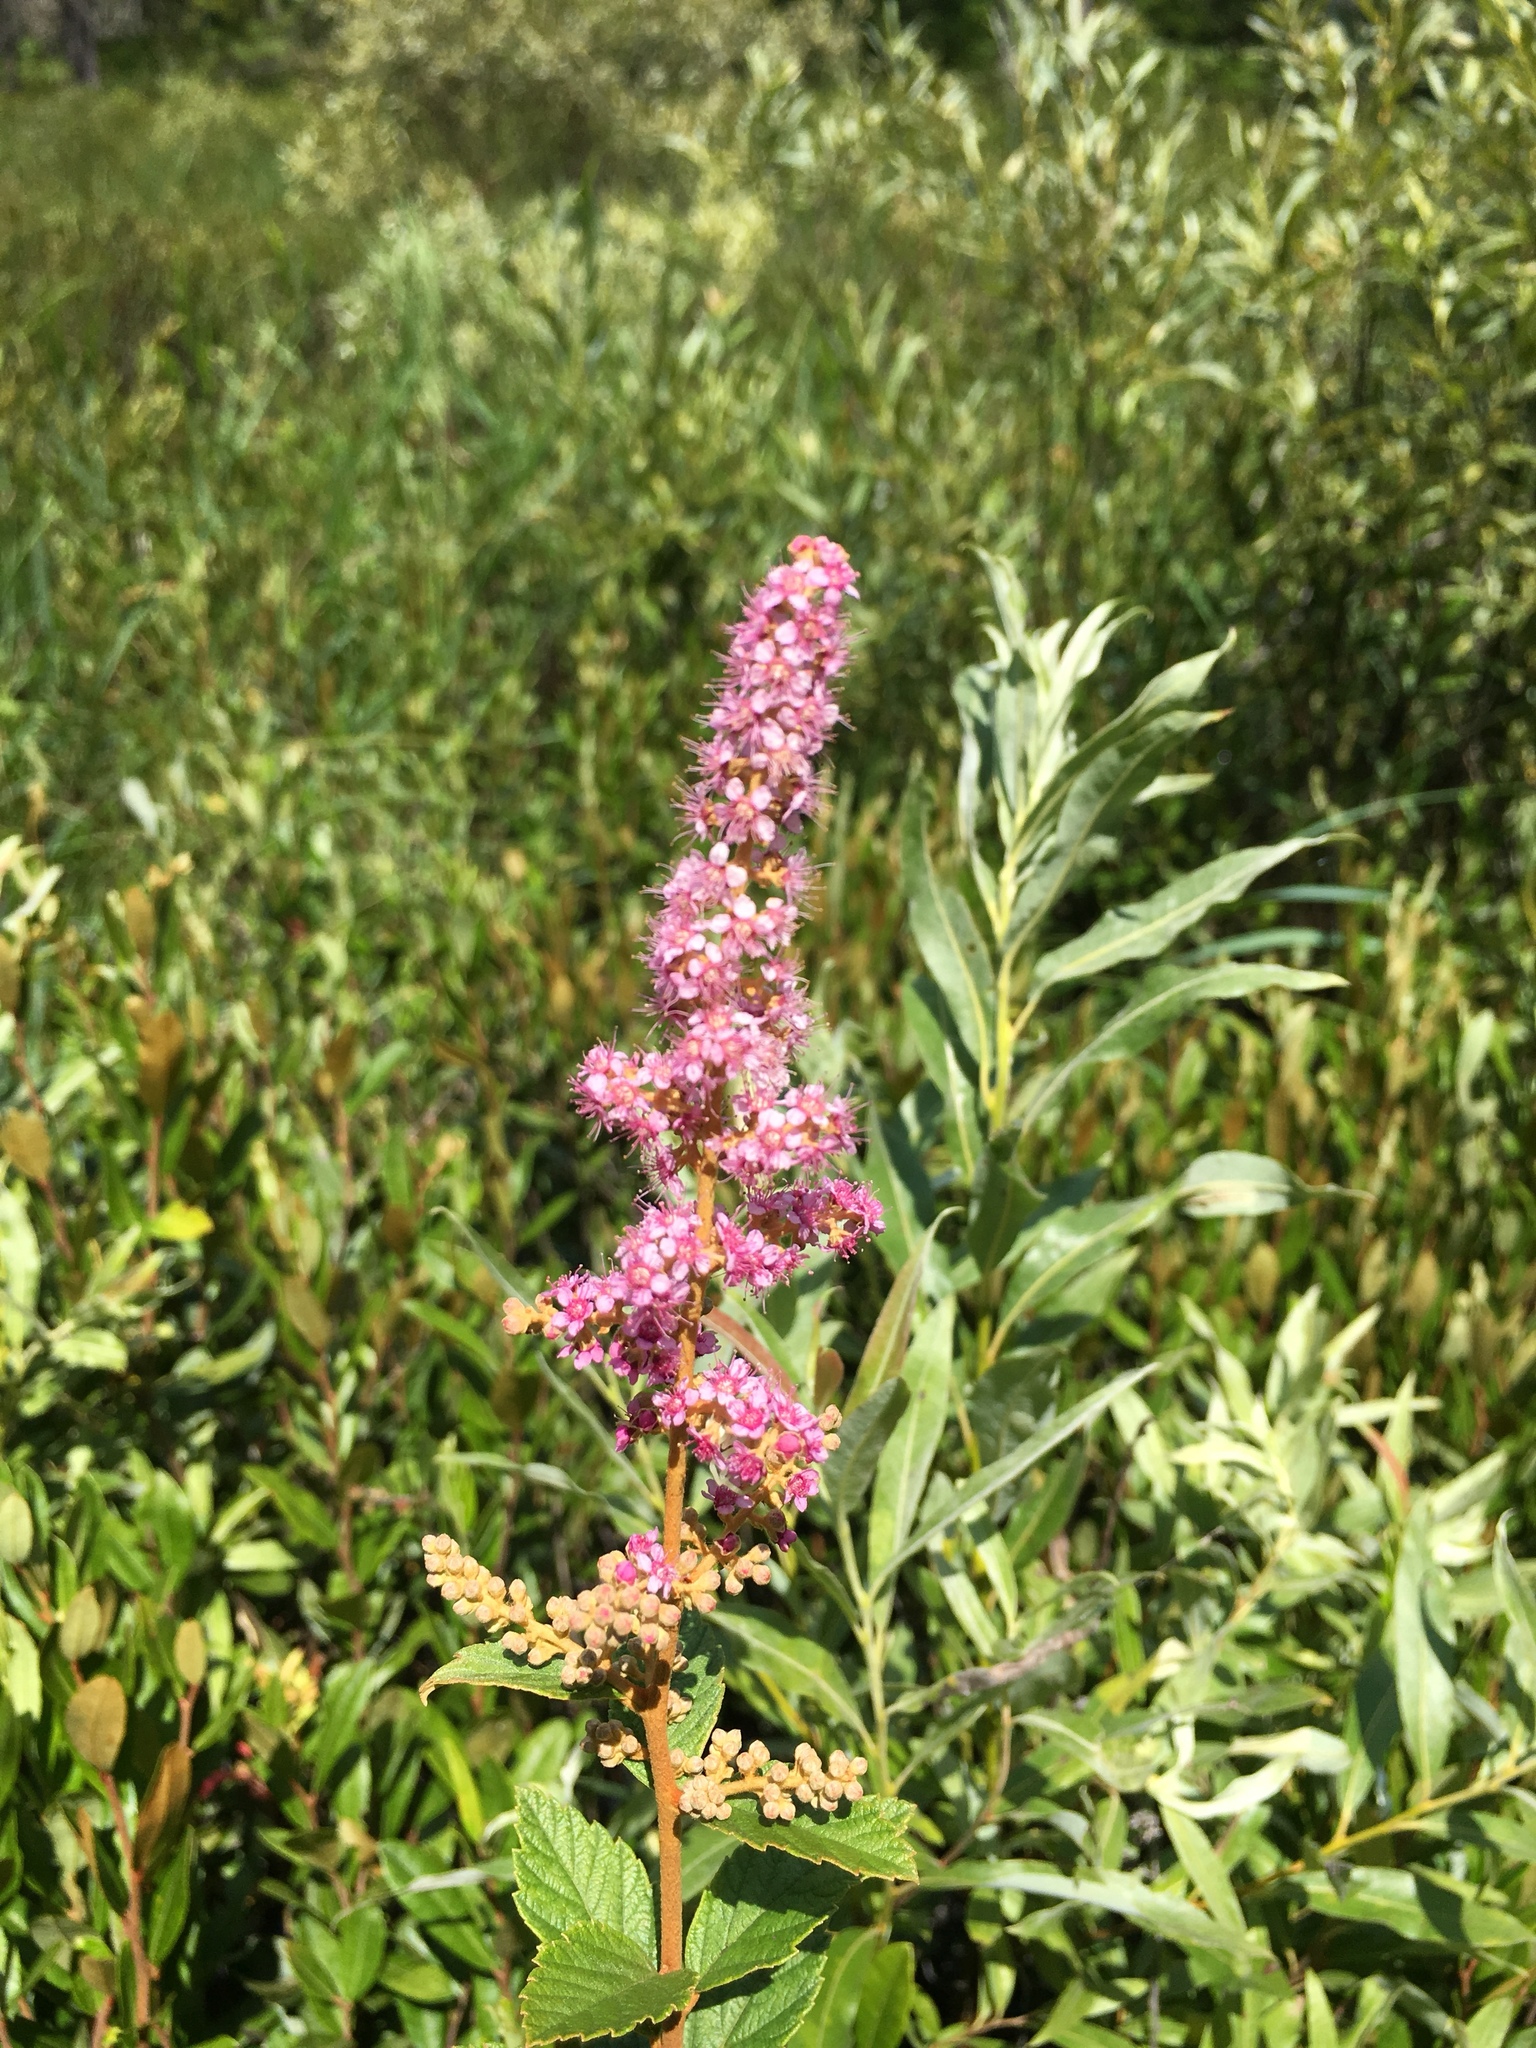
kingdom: Plantae
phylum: Tracheophyta
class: Magnoliopsida
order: Rosales
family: Rosaceae
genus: Spiraea
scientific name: Spiraea tomentosa
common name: Hardhack
